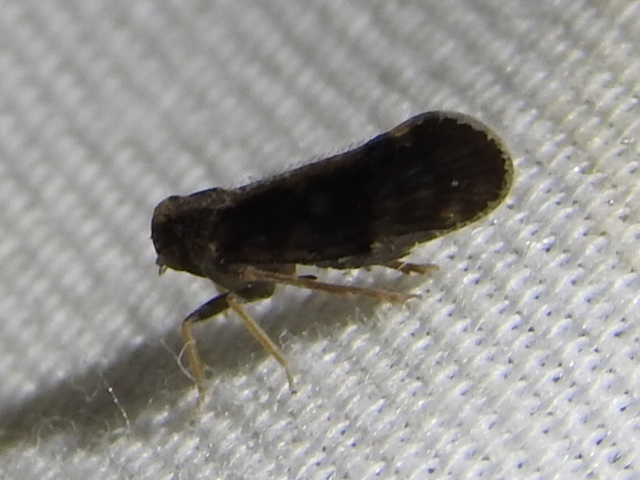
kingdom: Animalia
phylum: Arthropoda
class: Insecta
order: Hemiptera
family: Cixiidae
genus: Pintalia
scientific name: Pintalia vibex
